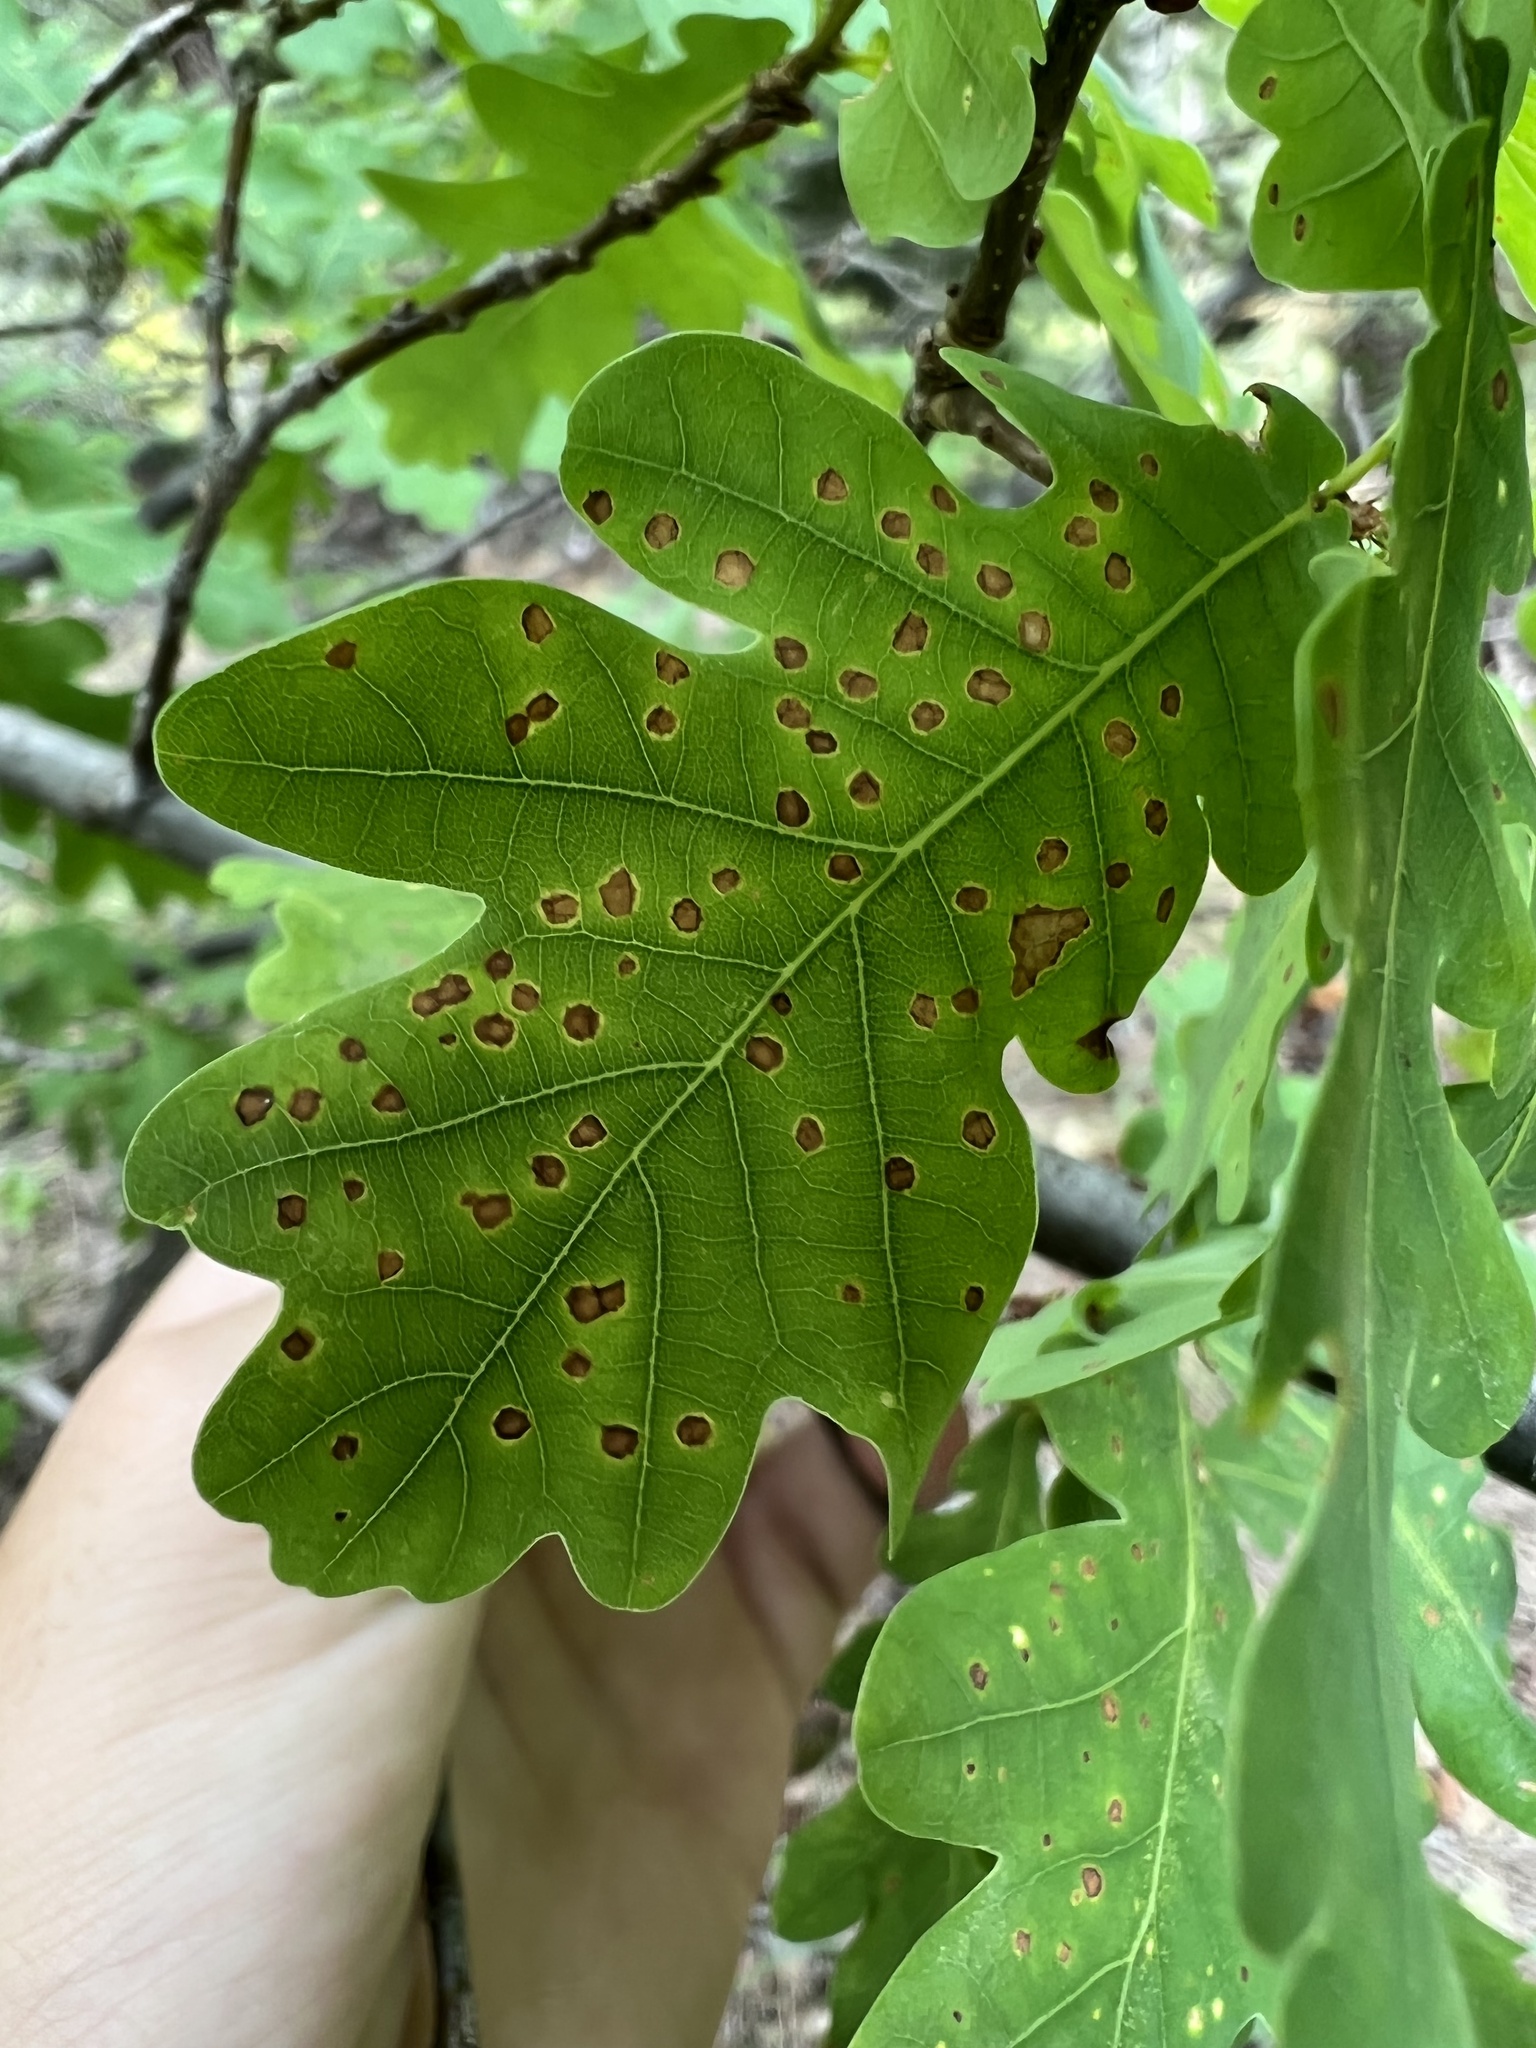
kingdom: Plantae
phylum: Tracheophyta
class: Magnoliopsida
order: Fagales
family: Fagaceae
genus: Quercus
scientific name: Quercus robur
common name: Pedunculate oak
